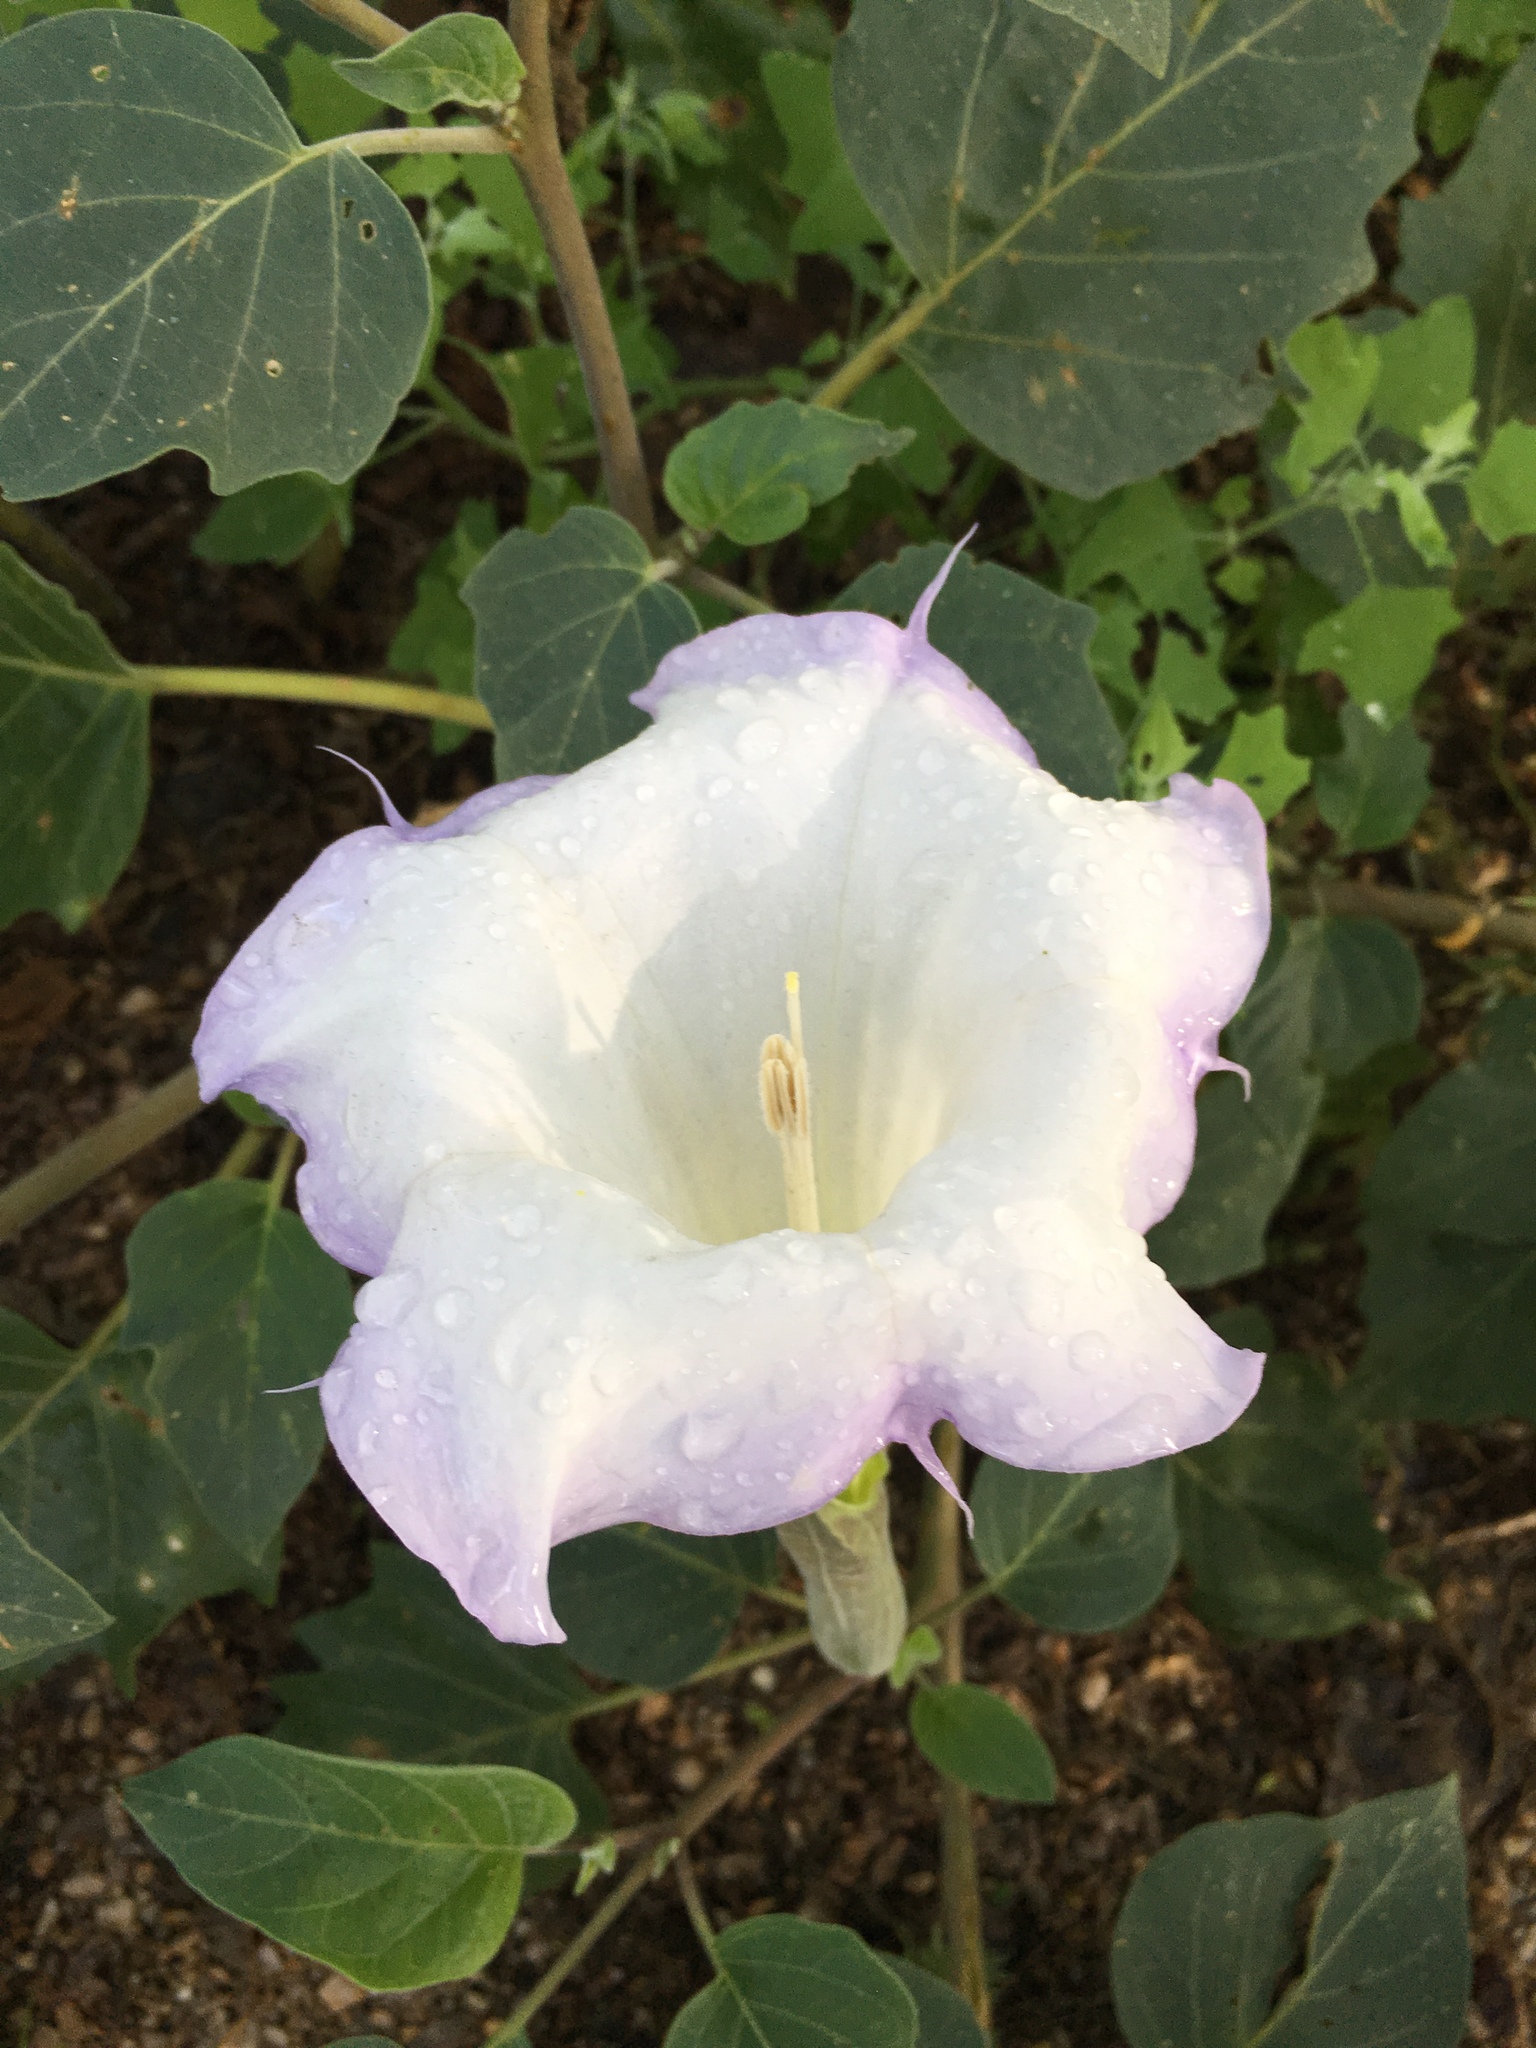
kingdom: Plantae
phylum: Tracheophyta
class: Magnoliopsida
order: Solanales
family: Solanaceae
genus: Datura
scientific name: Datura wrightii
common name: Sacred thorn-apple
